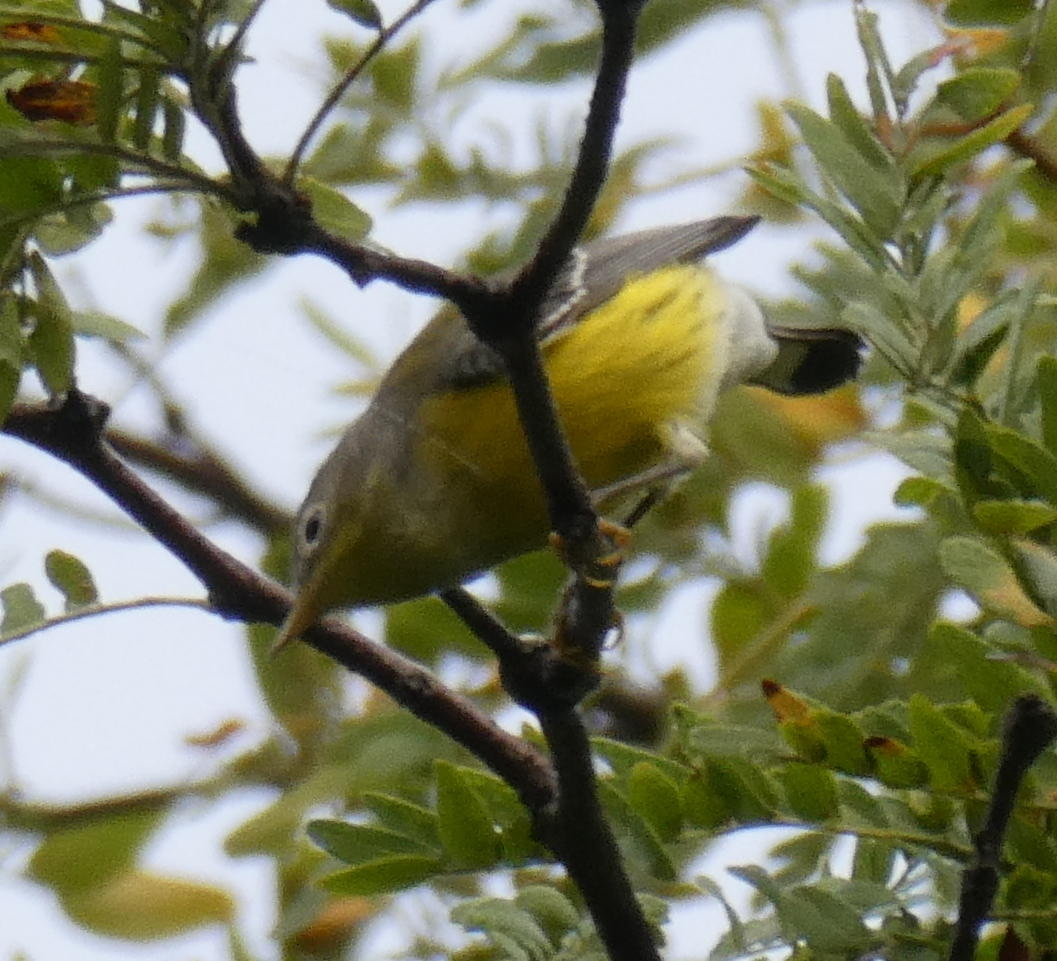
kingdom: Animalia
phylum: Chordata
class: Aves
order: Passeriformes
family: Parulidae
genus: Setophaga
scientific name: Setophaga magnolia
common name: Magnolia warbler
